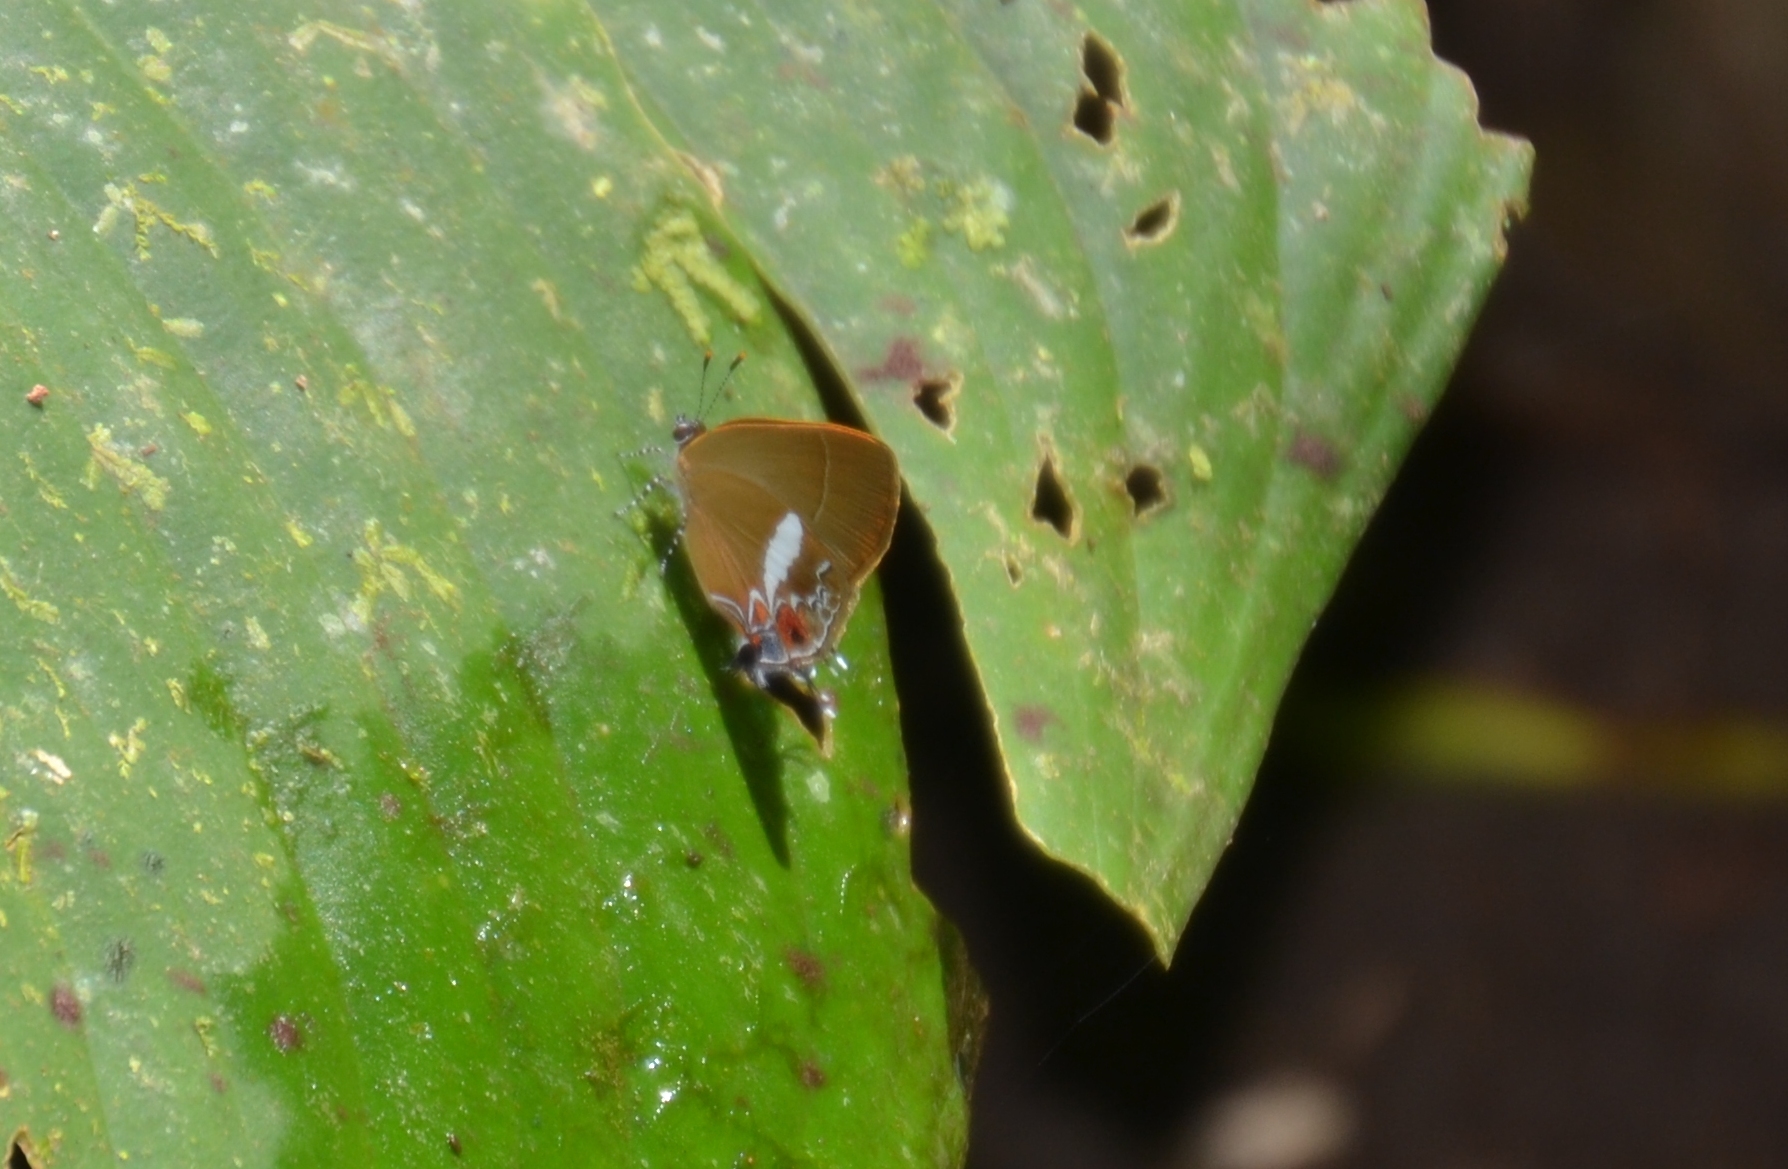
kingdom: Animalia
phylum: Arthropoda
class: Insecta
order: Lepidoptera
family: Lycaenidae
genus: Calycopis
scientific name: Calycopis thama
